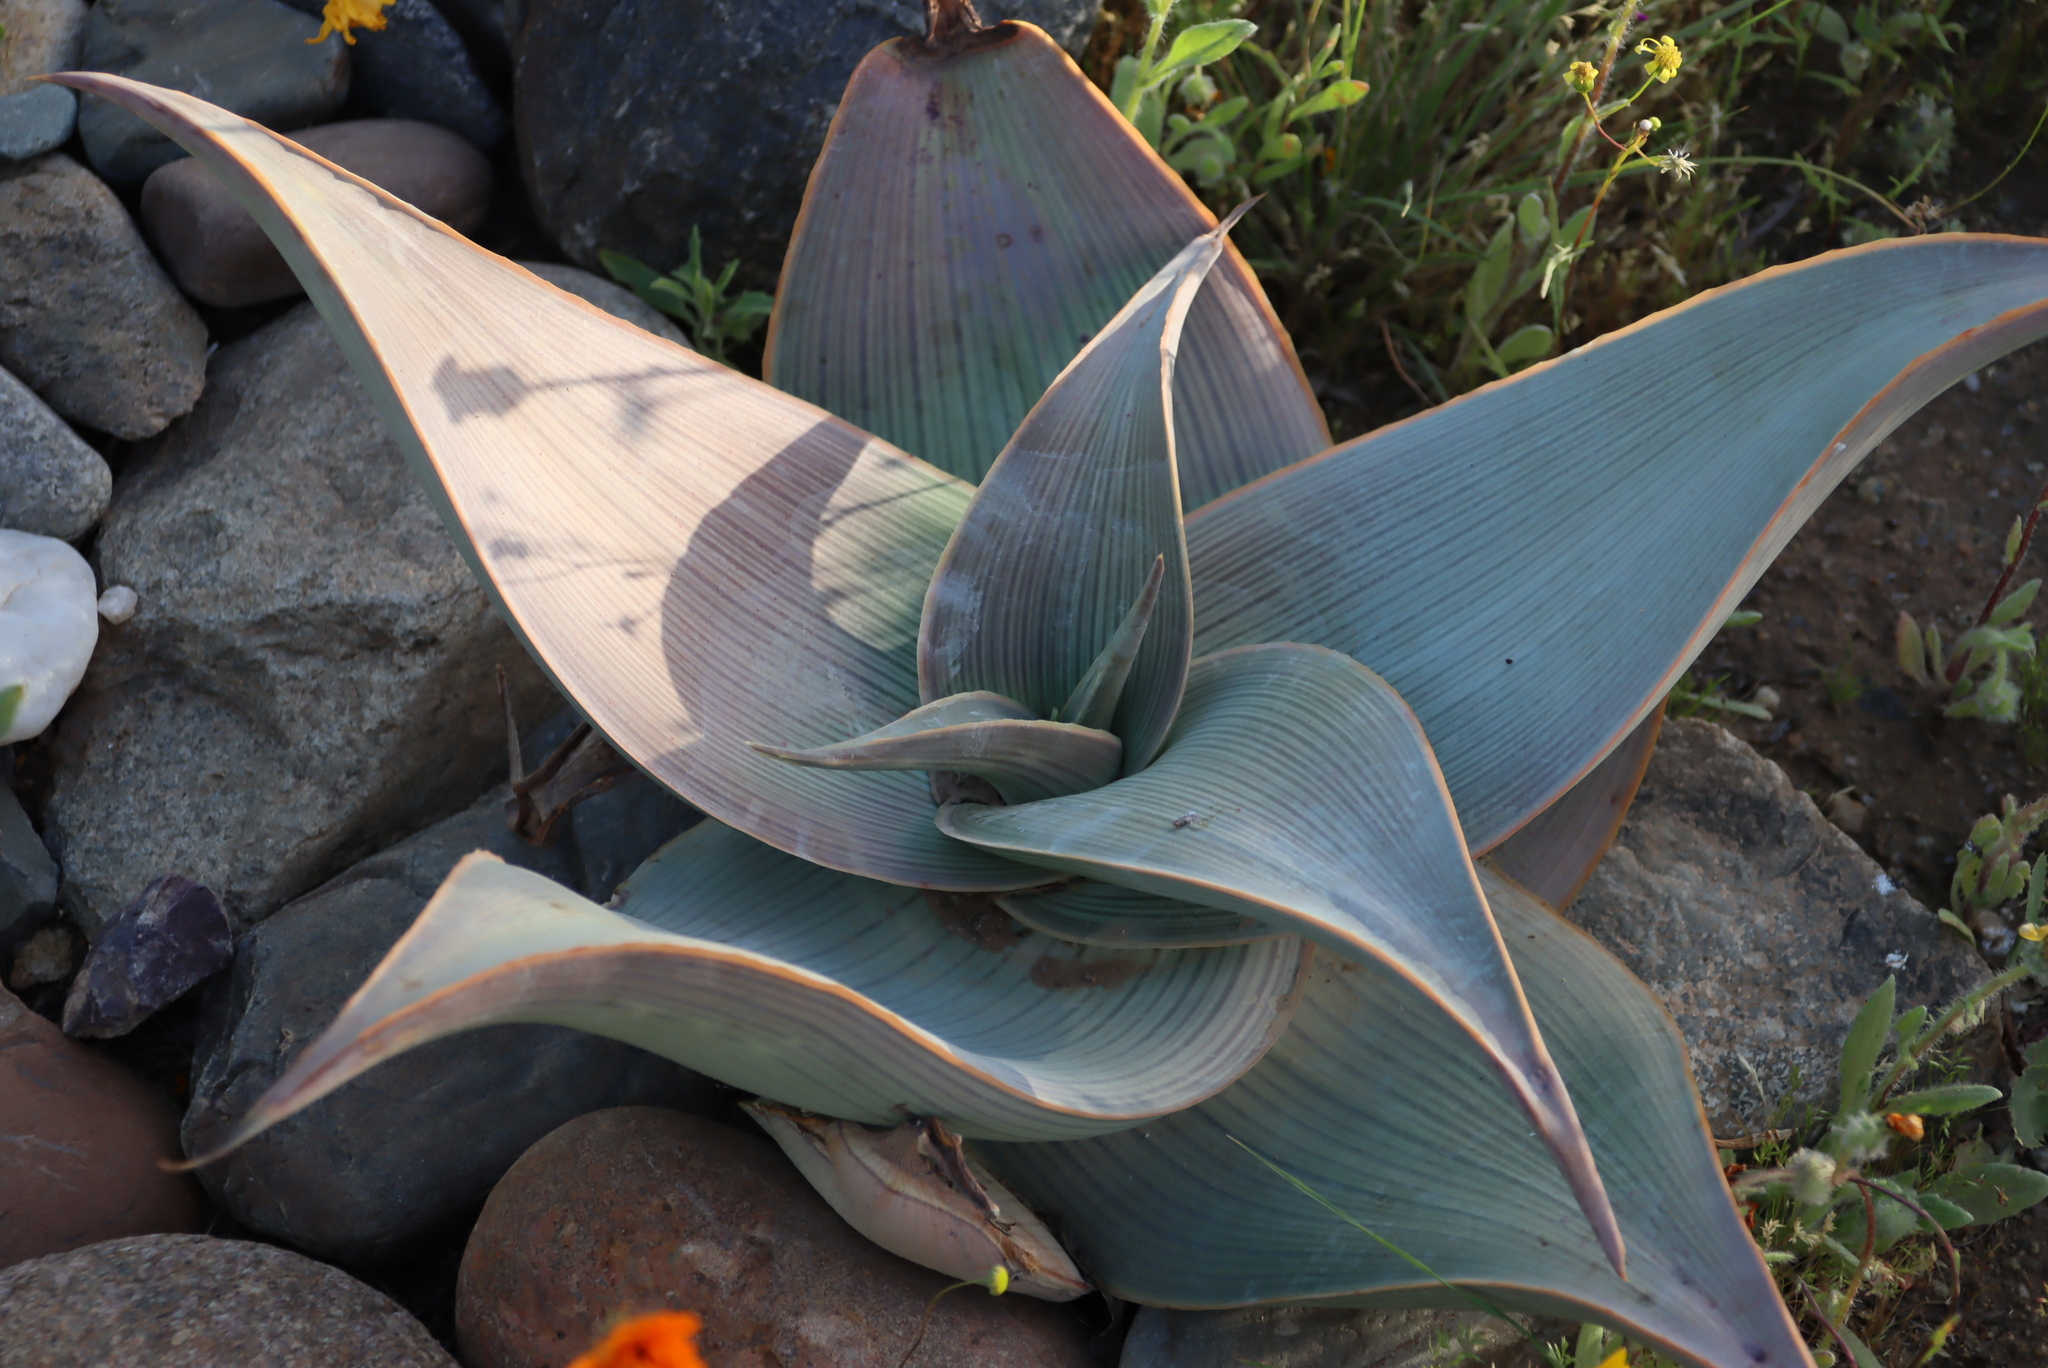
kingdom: Plantae
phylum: Tracheophyta
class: Liliopsida
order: Asparagales
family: Asphodelaceae
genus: Aloe
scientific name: Aloe karasbergensis
